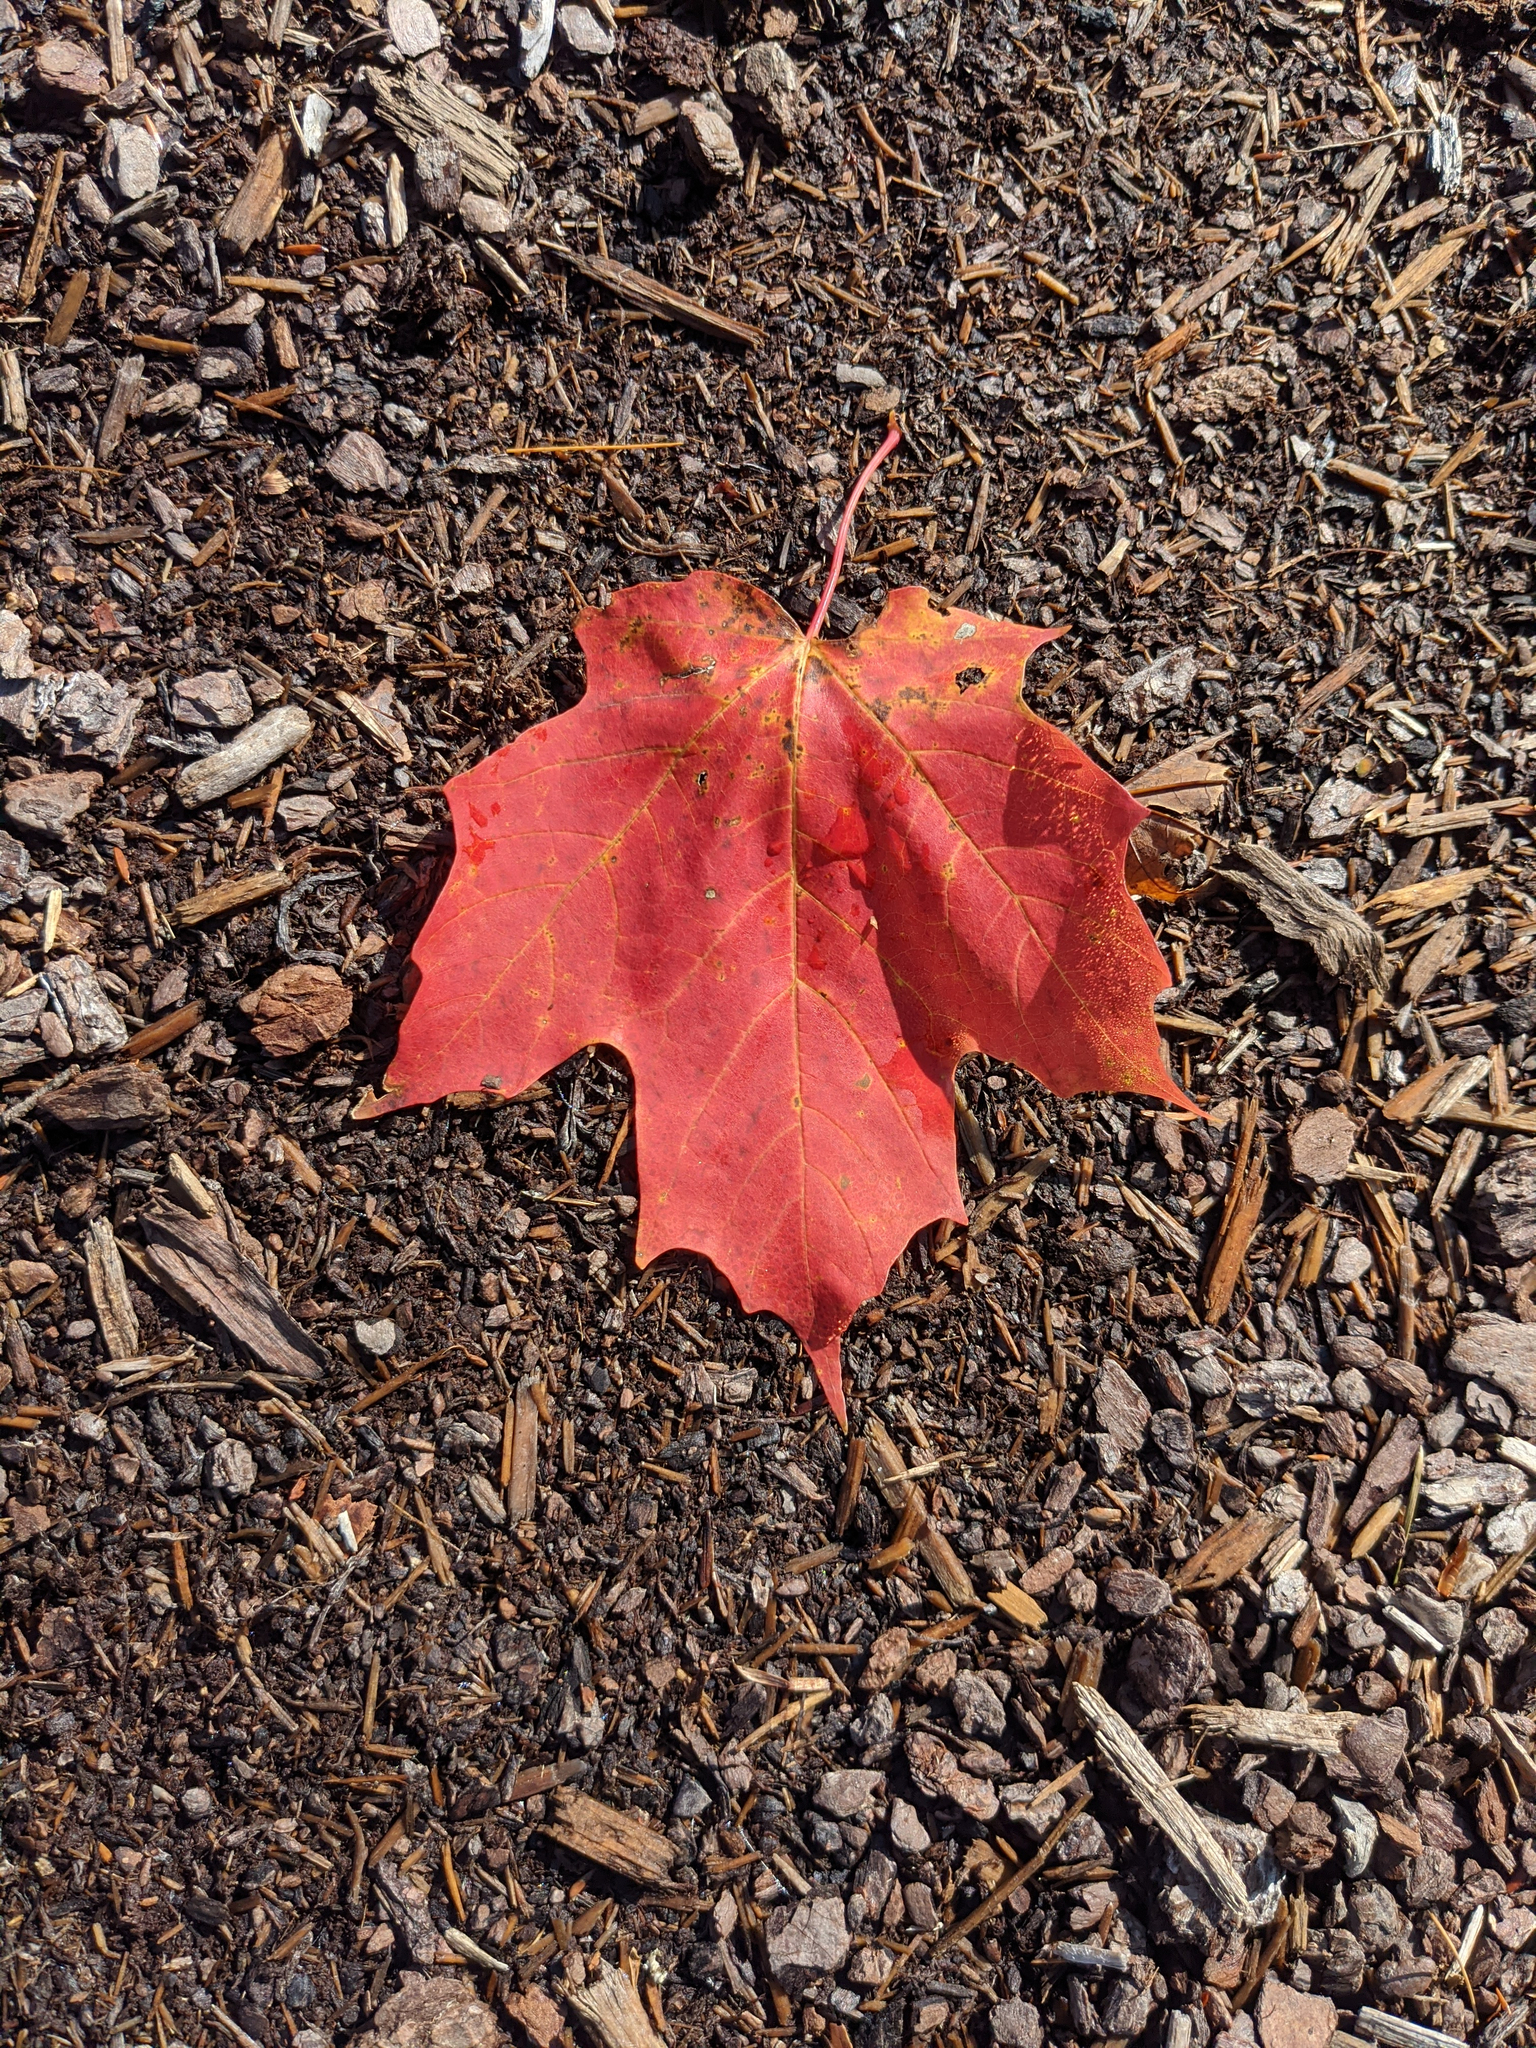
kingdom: Plantae
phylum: Tracheophyta
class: Magnoliopsida
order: Sapindales
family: Sapindaceae
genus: Acer
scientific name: Acer saccharum
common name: Sugar maple
